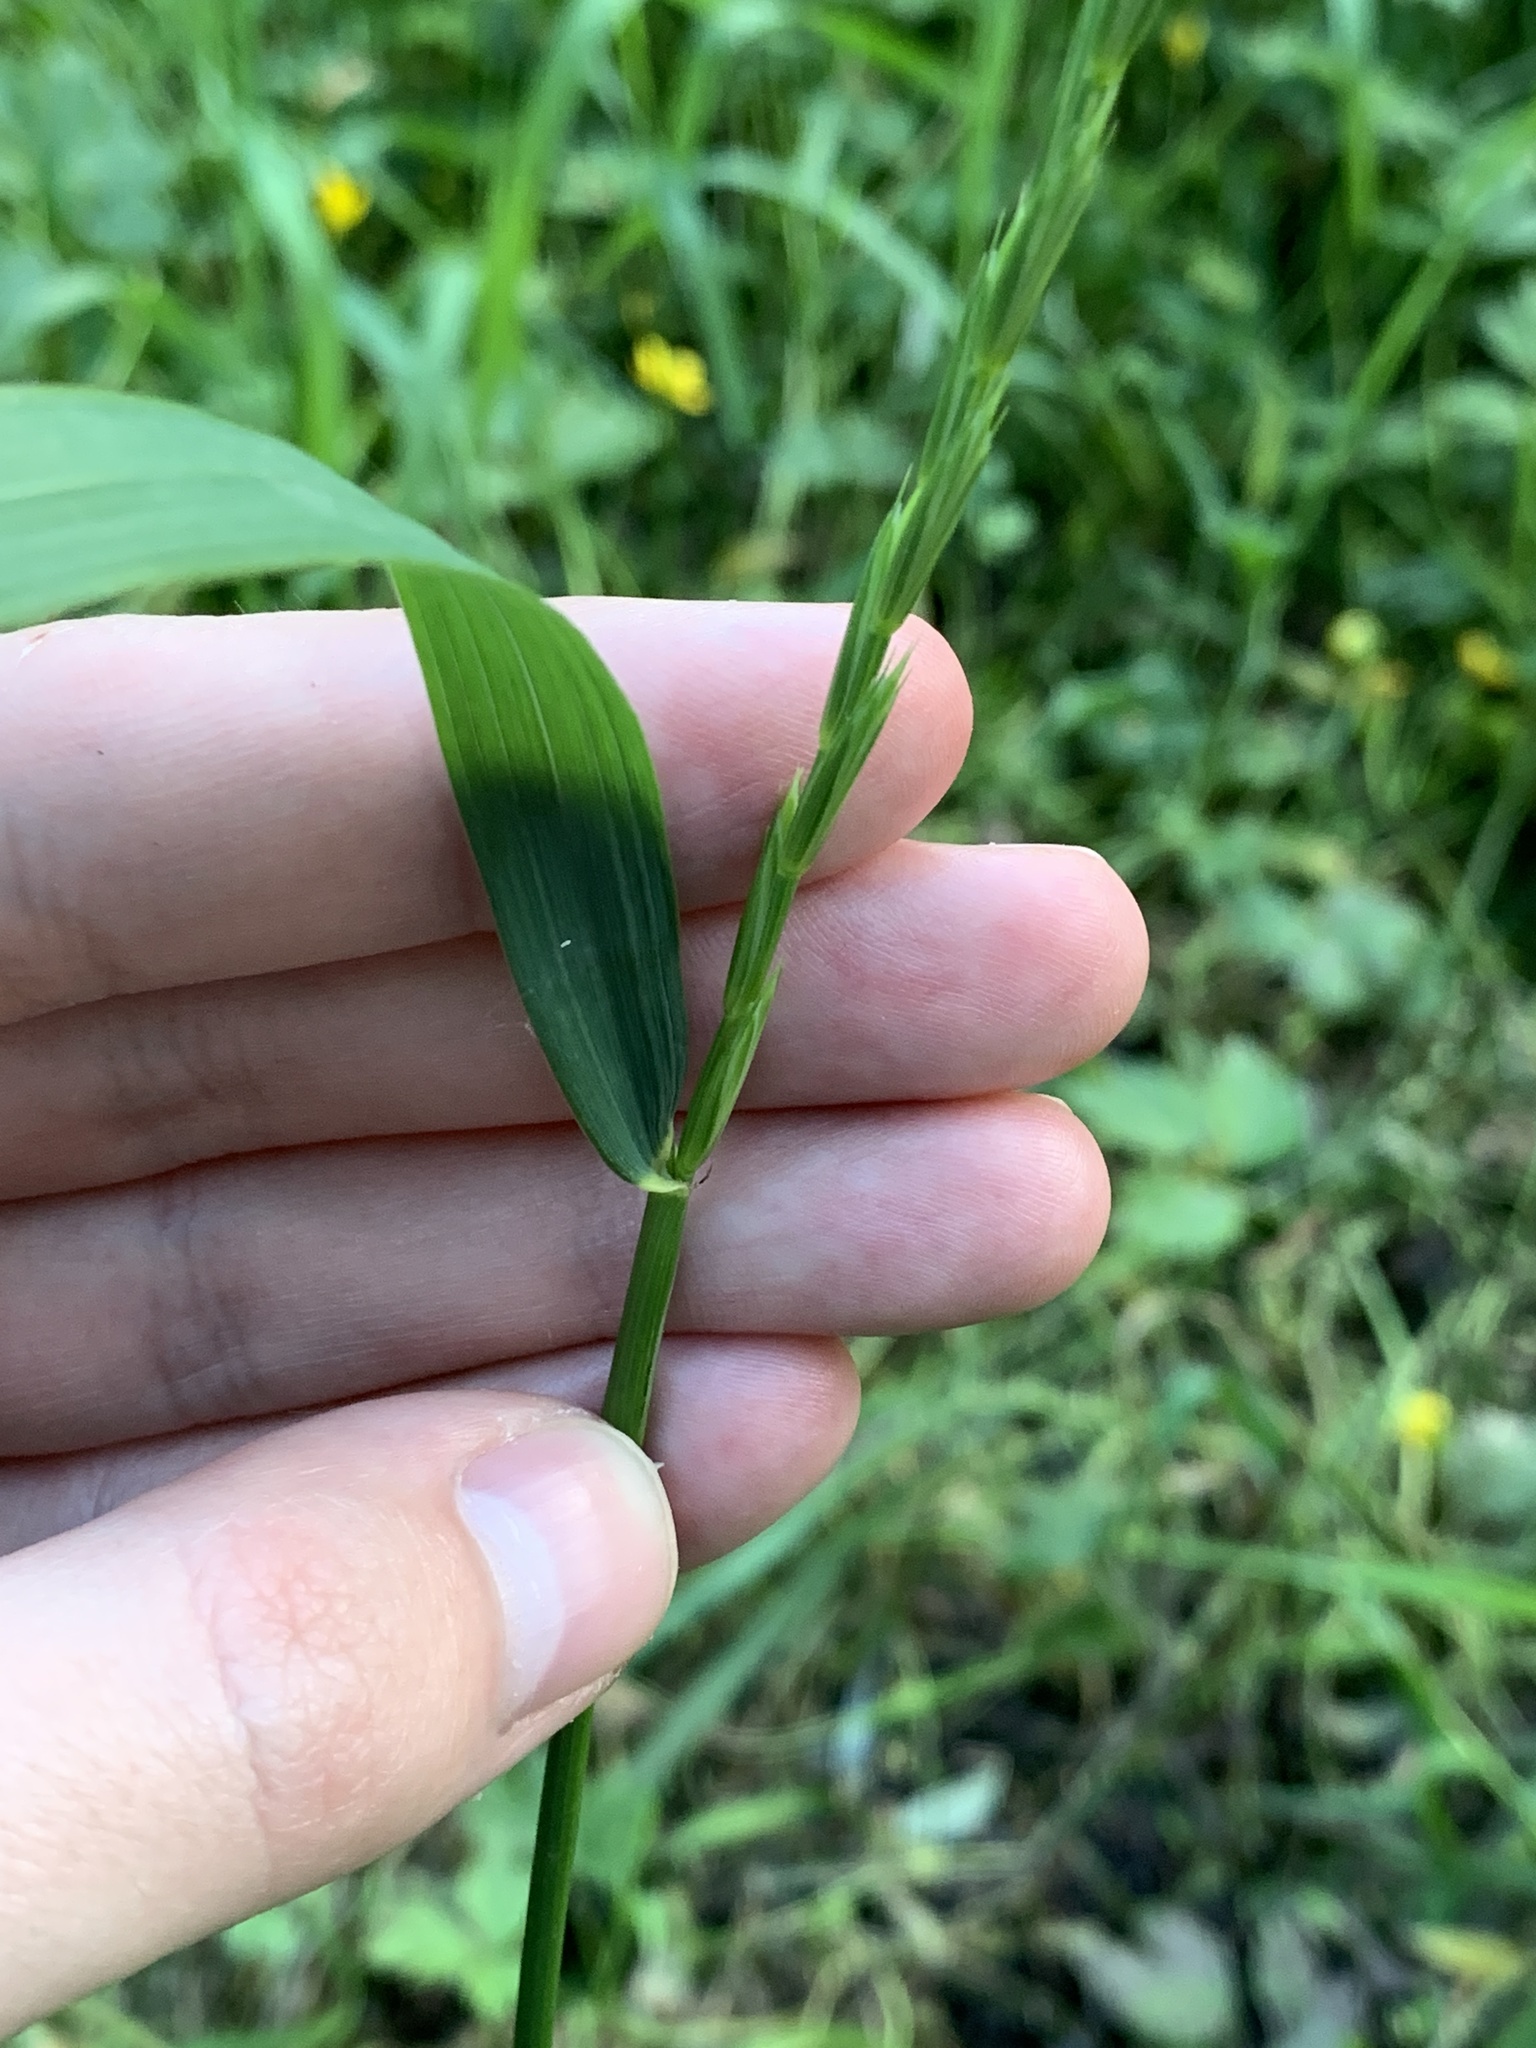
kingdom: Plantae
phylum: Tracheophyta
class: Liliopsida
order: Poales
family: Poaceae
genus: Elymus
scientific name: Elymus repens
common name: Quackgrass
